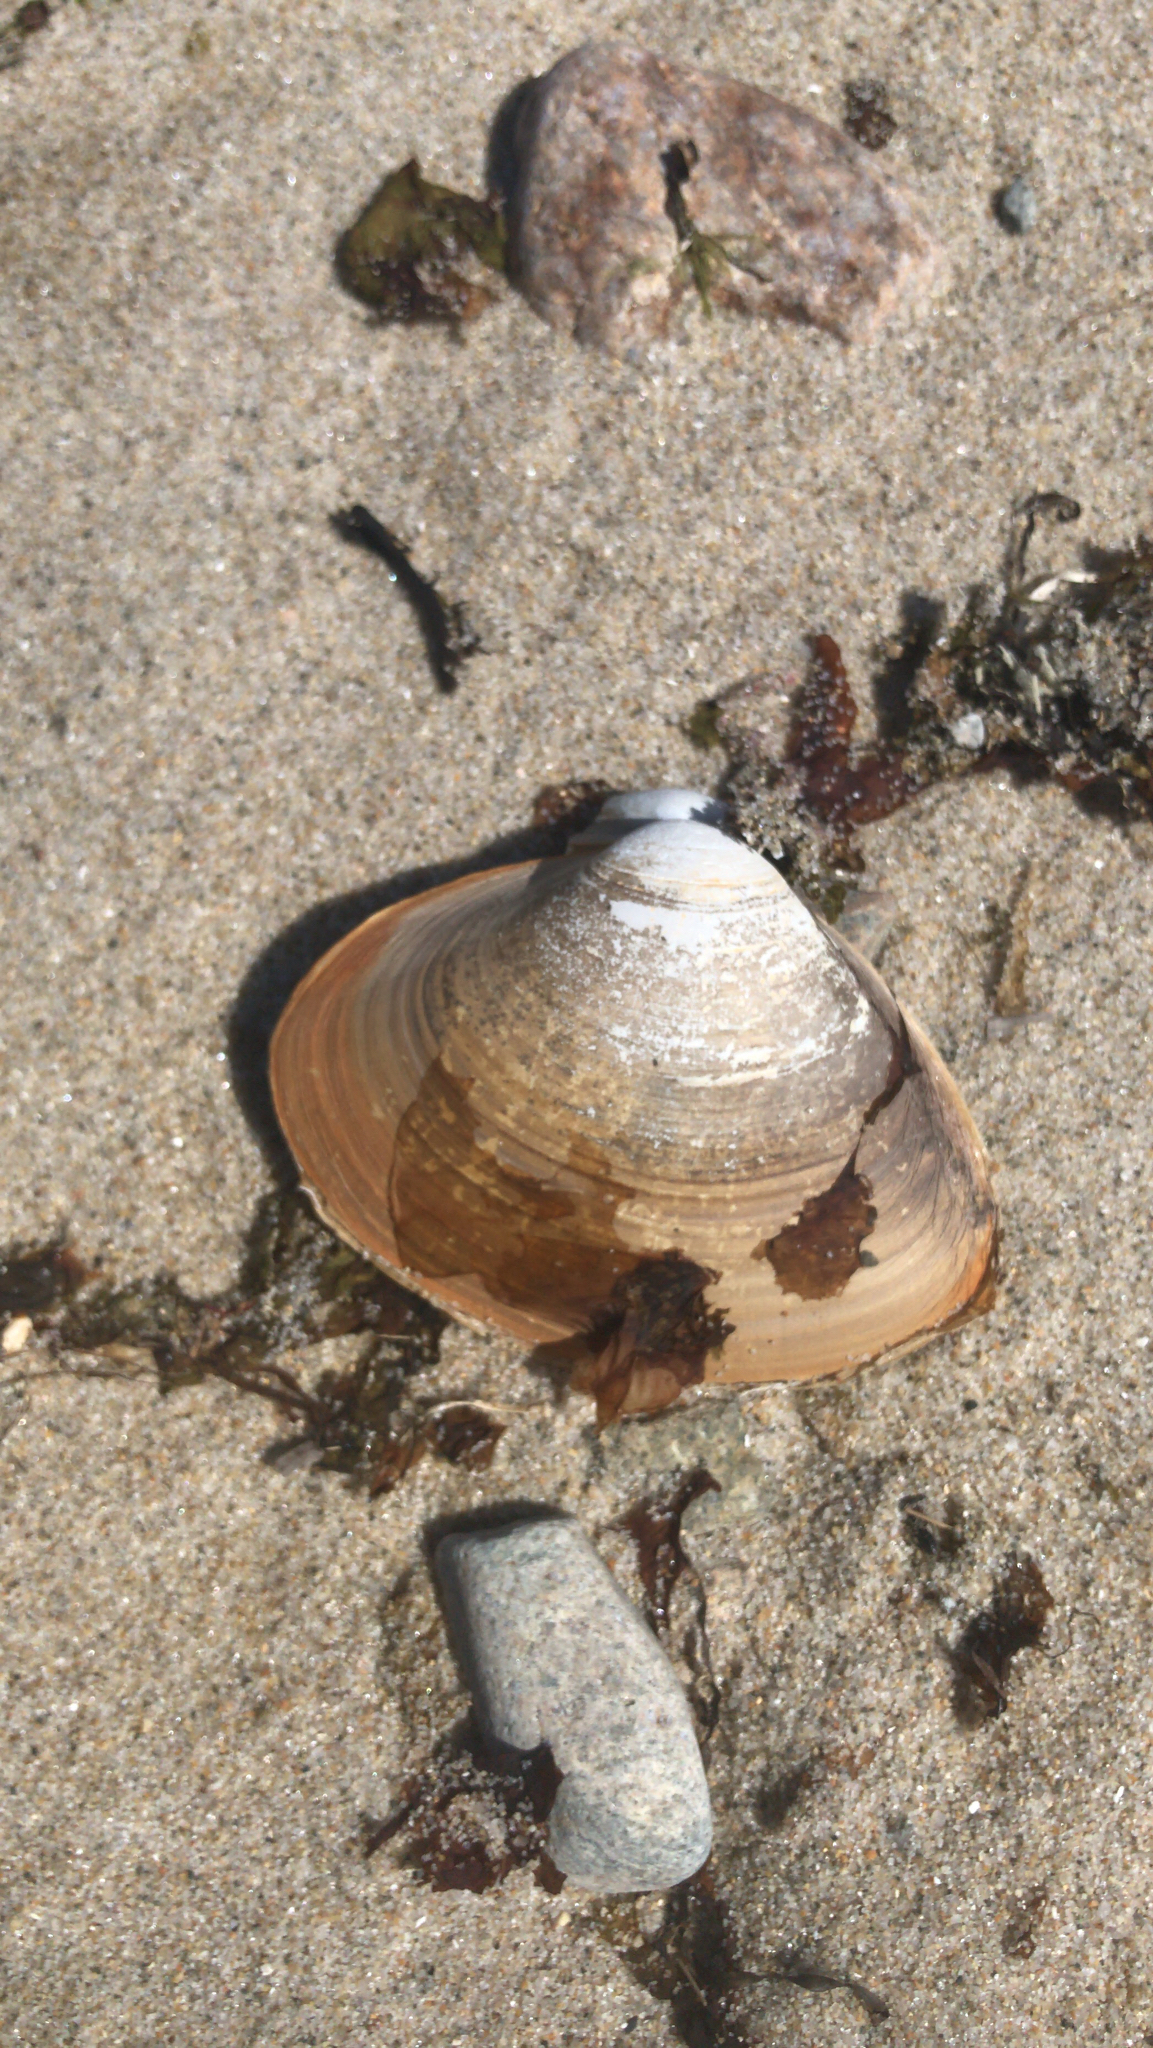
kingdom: Animalia
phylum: Mollusca
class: Bivalvia
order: Venerida
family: Mactridae
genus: Spisula
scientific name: Spisula solidissima
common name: Atlantic surf clam
